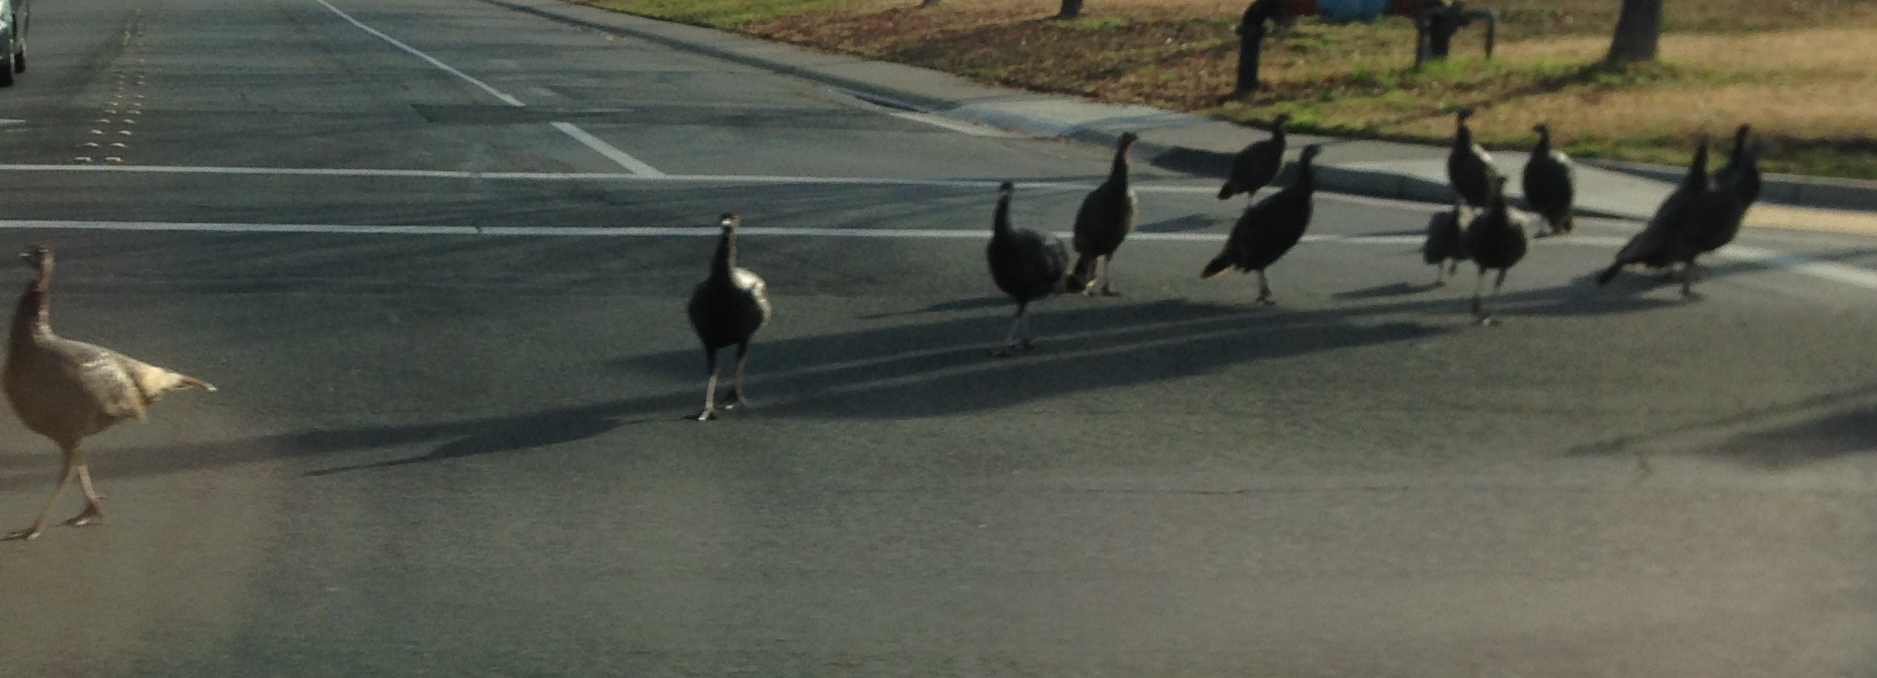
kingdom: Animalia
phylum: Chordata
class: Aves
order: Galliformes
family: Phasianidae
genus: Meleagris
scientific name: Meleagris gallopavo
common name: Wild turkey
